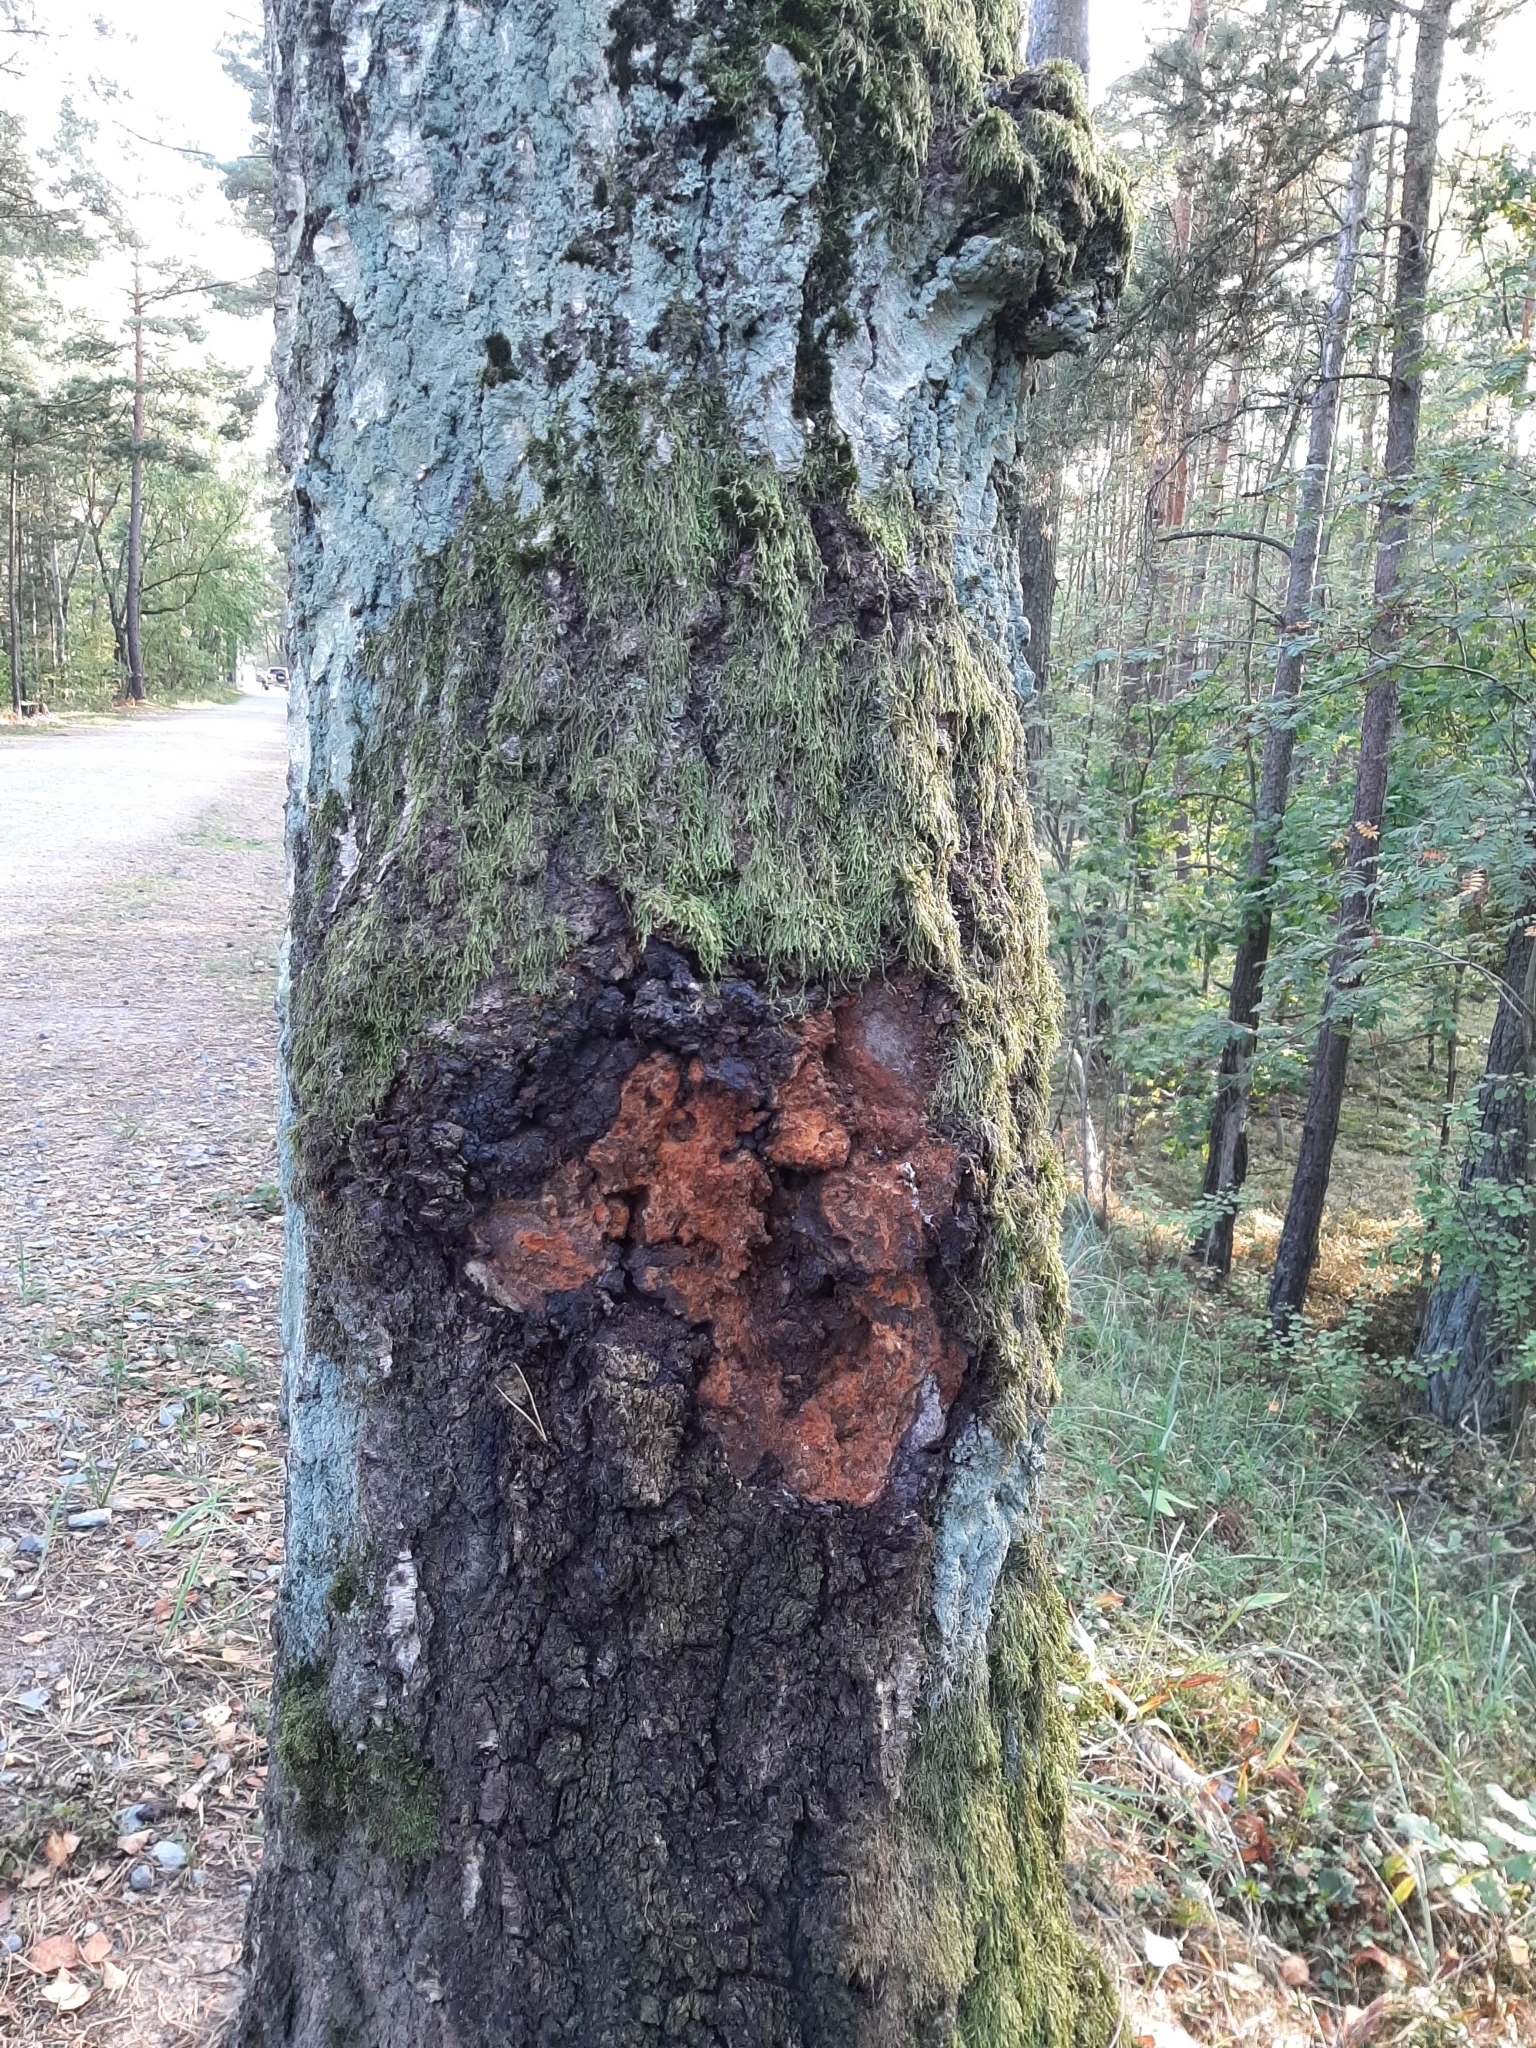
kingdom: Fungi
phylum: Basidiomycota
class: Agaricomycetes
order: Hymenochaetales
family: Hymenochaetaceae
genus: Inonotus
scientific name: Inonotus obliquus
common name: Chaga
